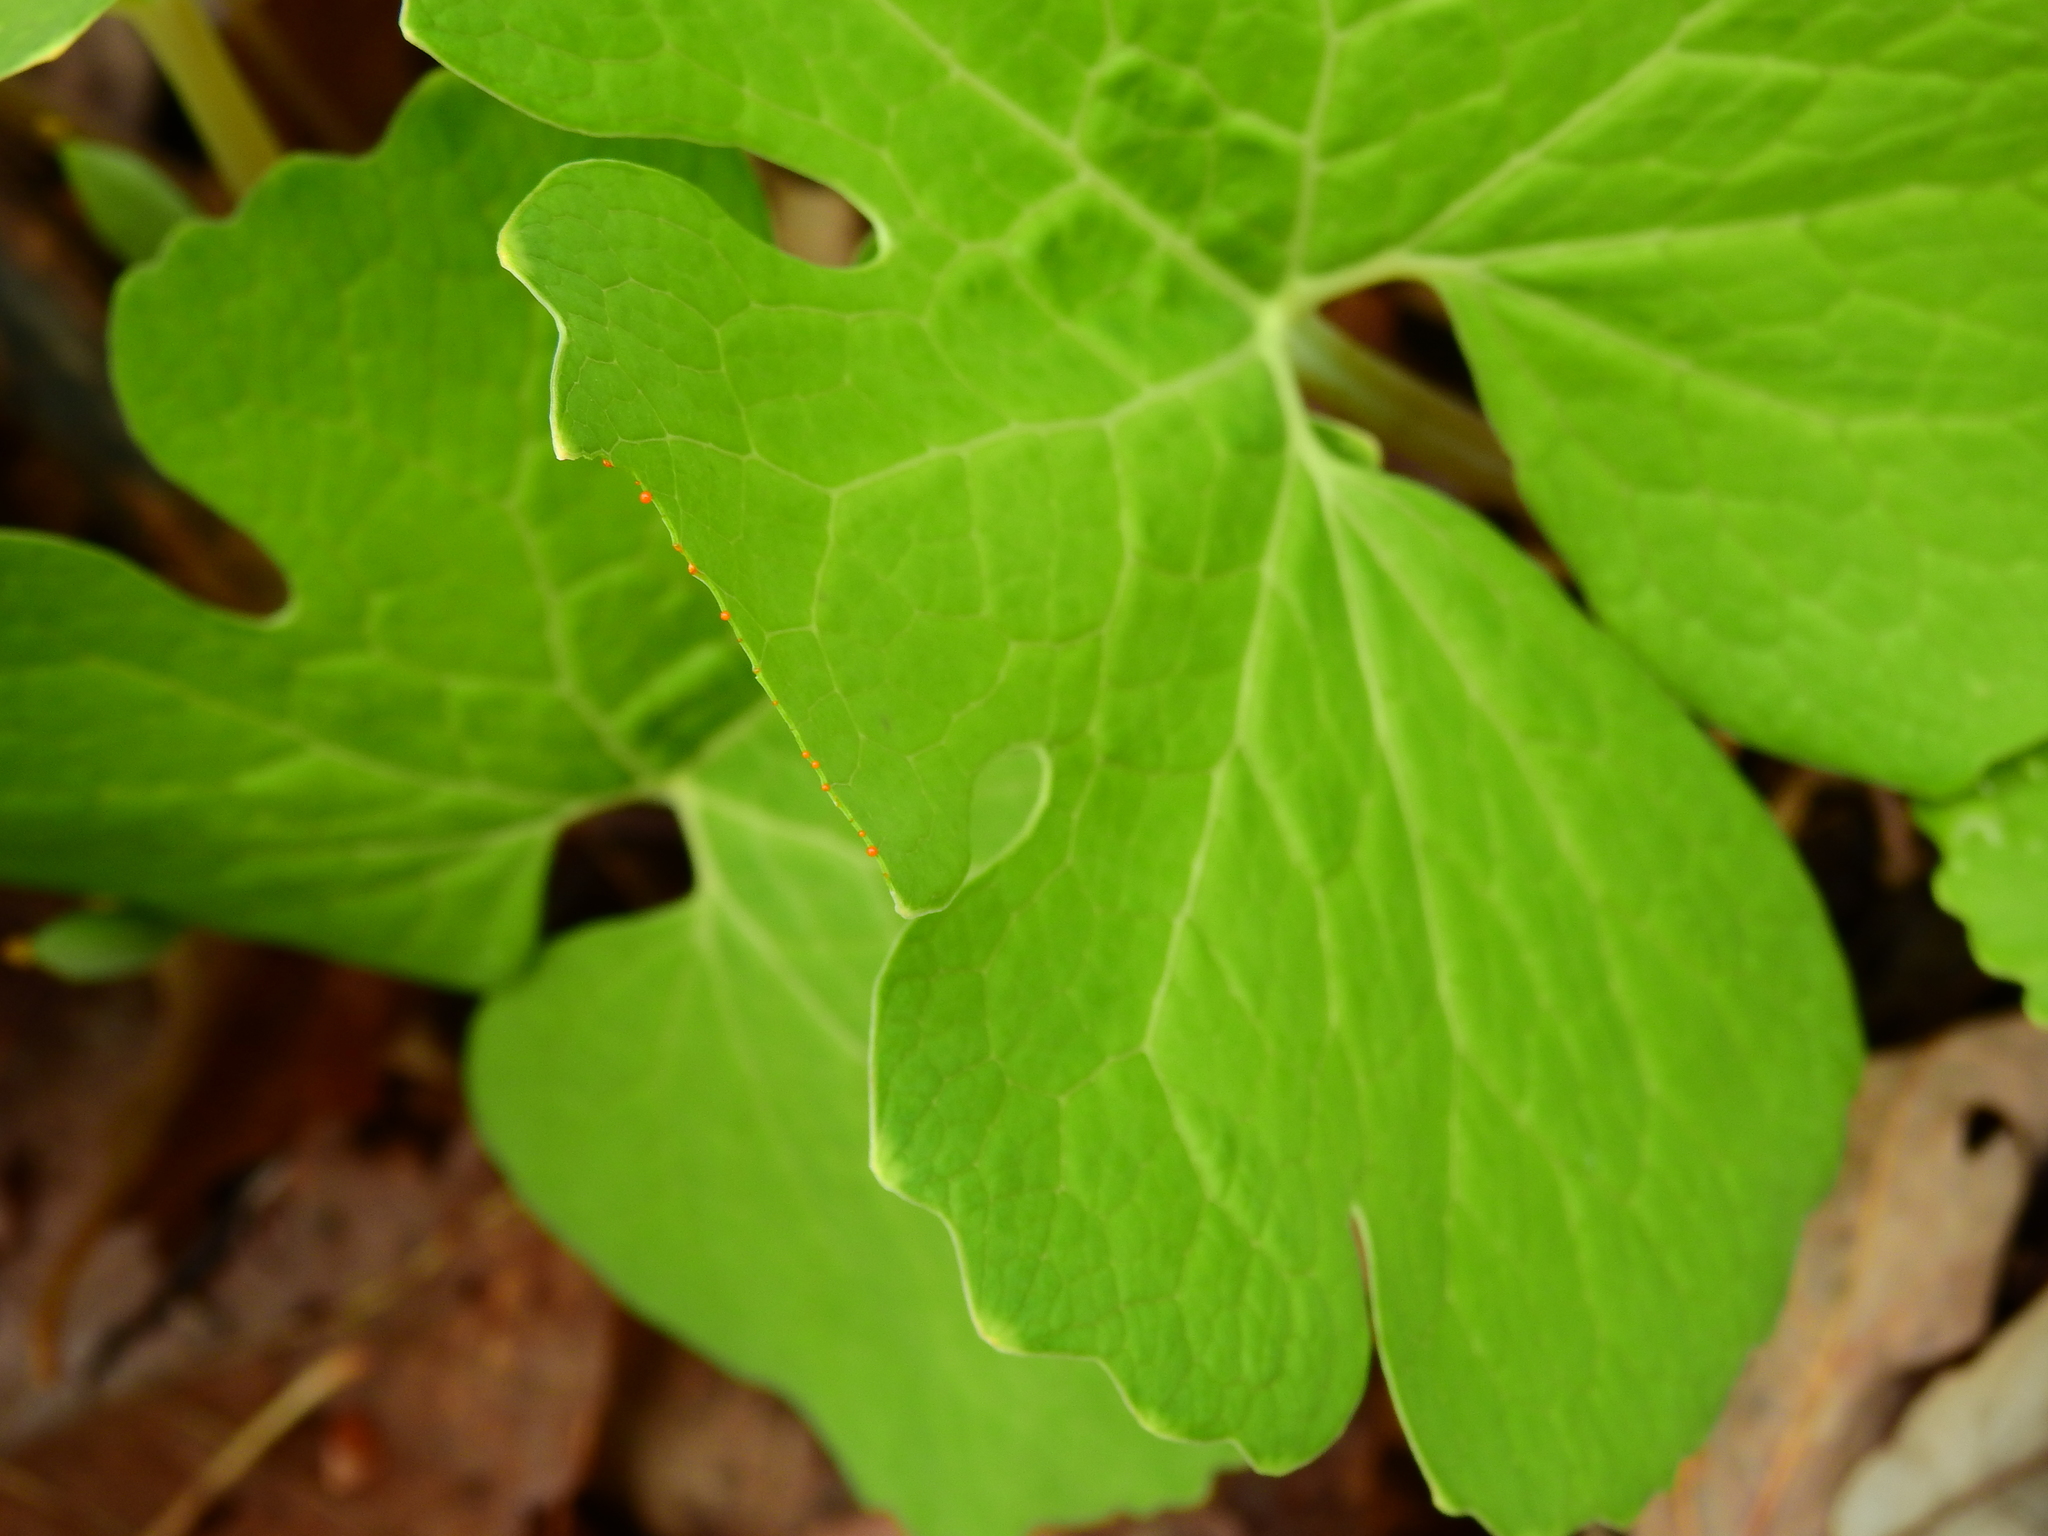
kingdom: Plantae
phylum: Tracheophyta
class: Magnoliopsida
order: Ranunculales
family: Papaveraceae
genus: Sanguinaria
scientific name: Sanguinaria canadensis
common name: Bloodroot
